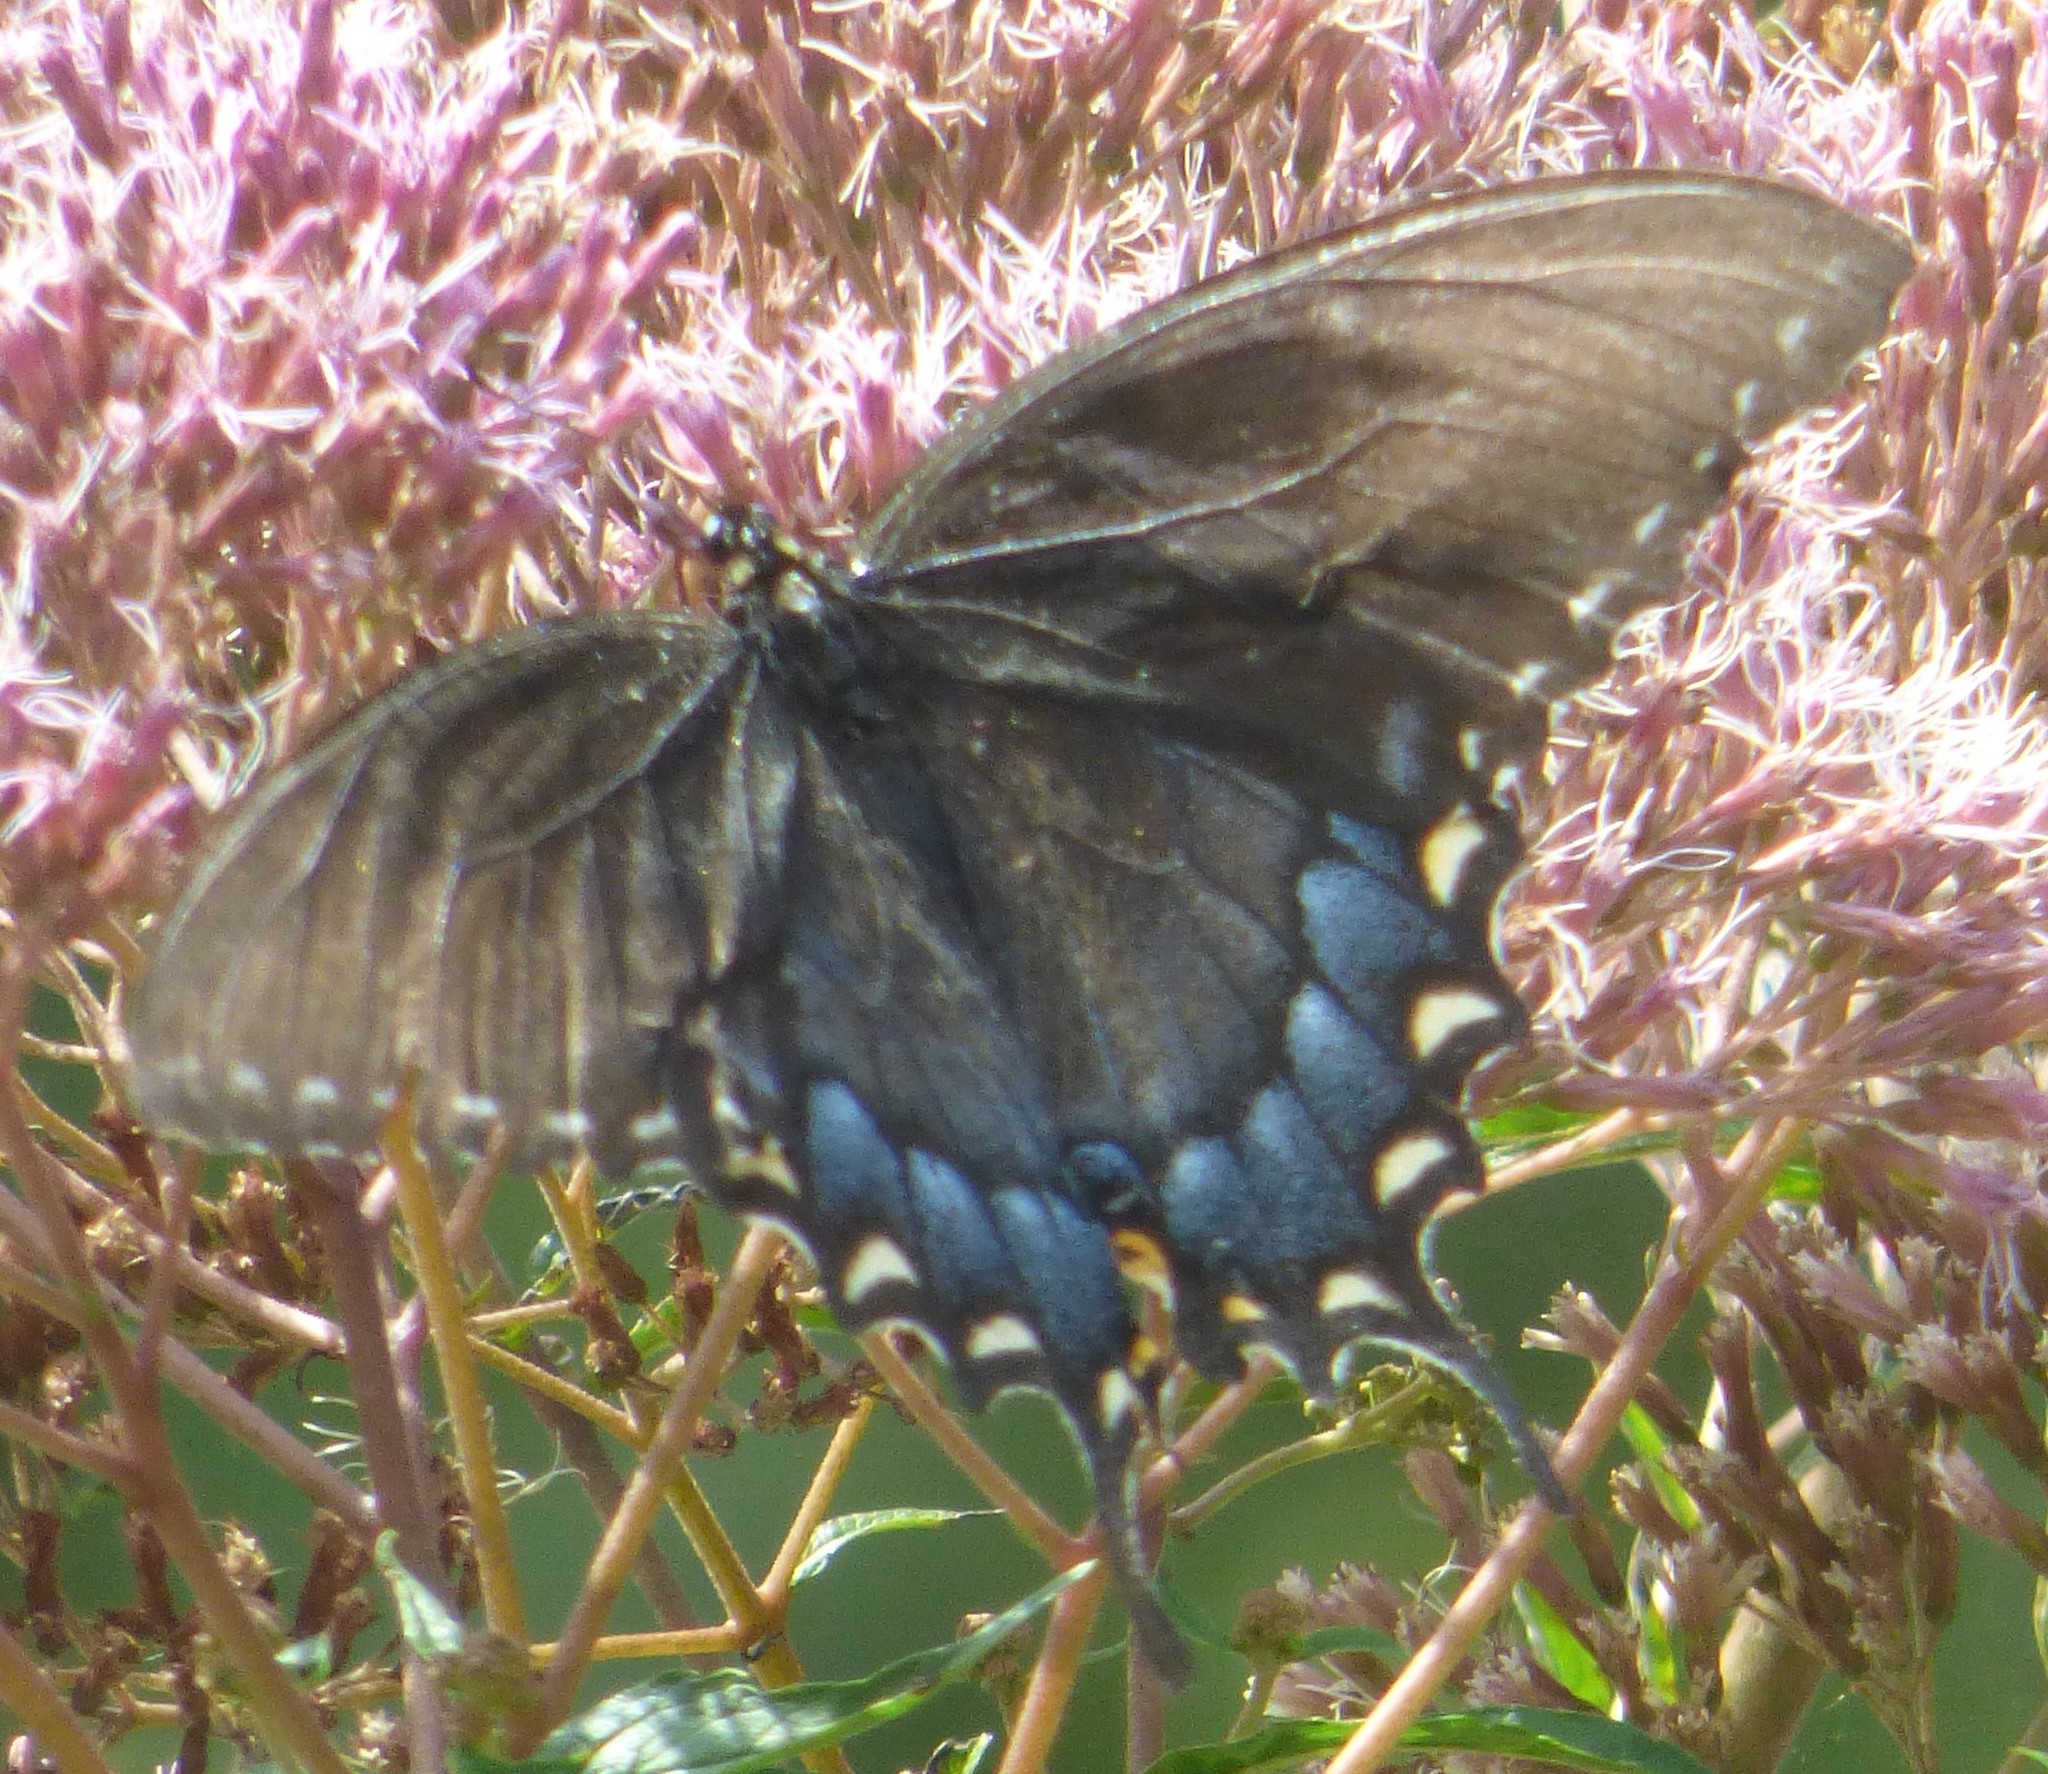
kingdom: Animalia
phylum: Arthropoda
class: Insecta
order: Lepidoptera
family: Papilionidae
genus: Papilio
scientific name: Papilio glaucus
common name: Tiger swallowtail
